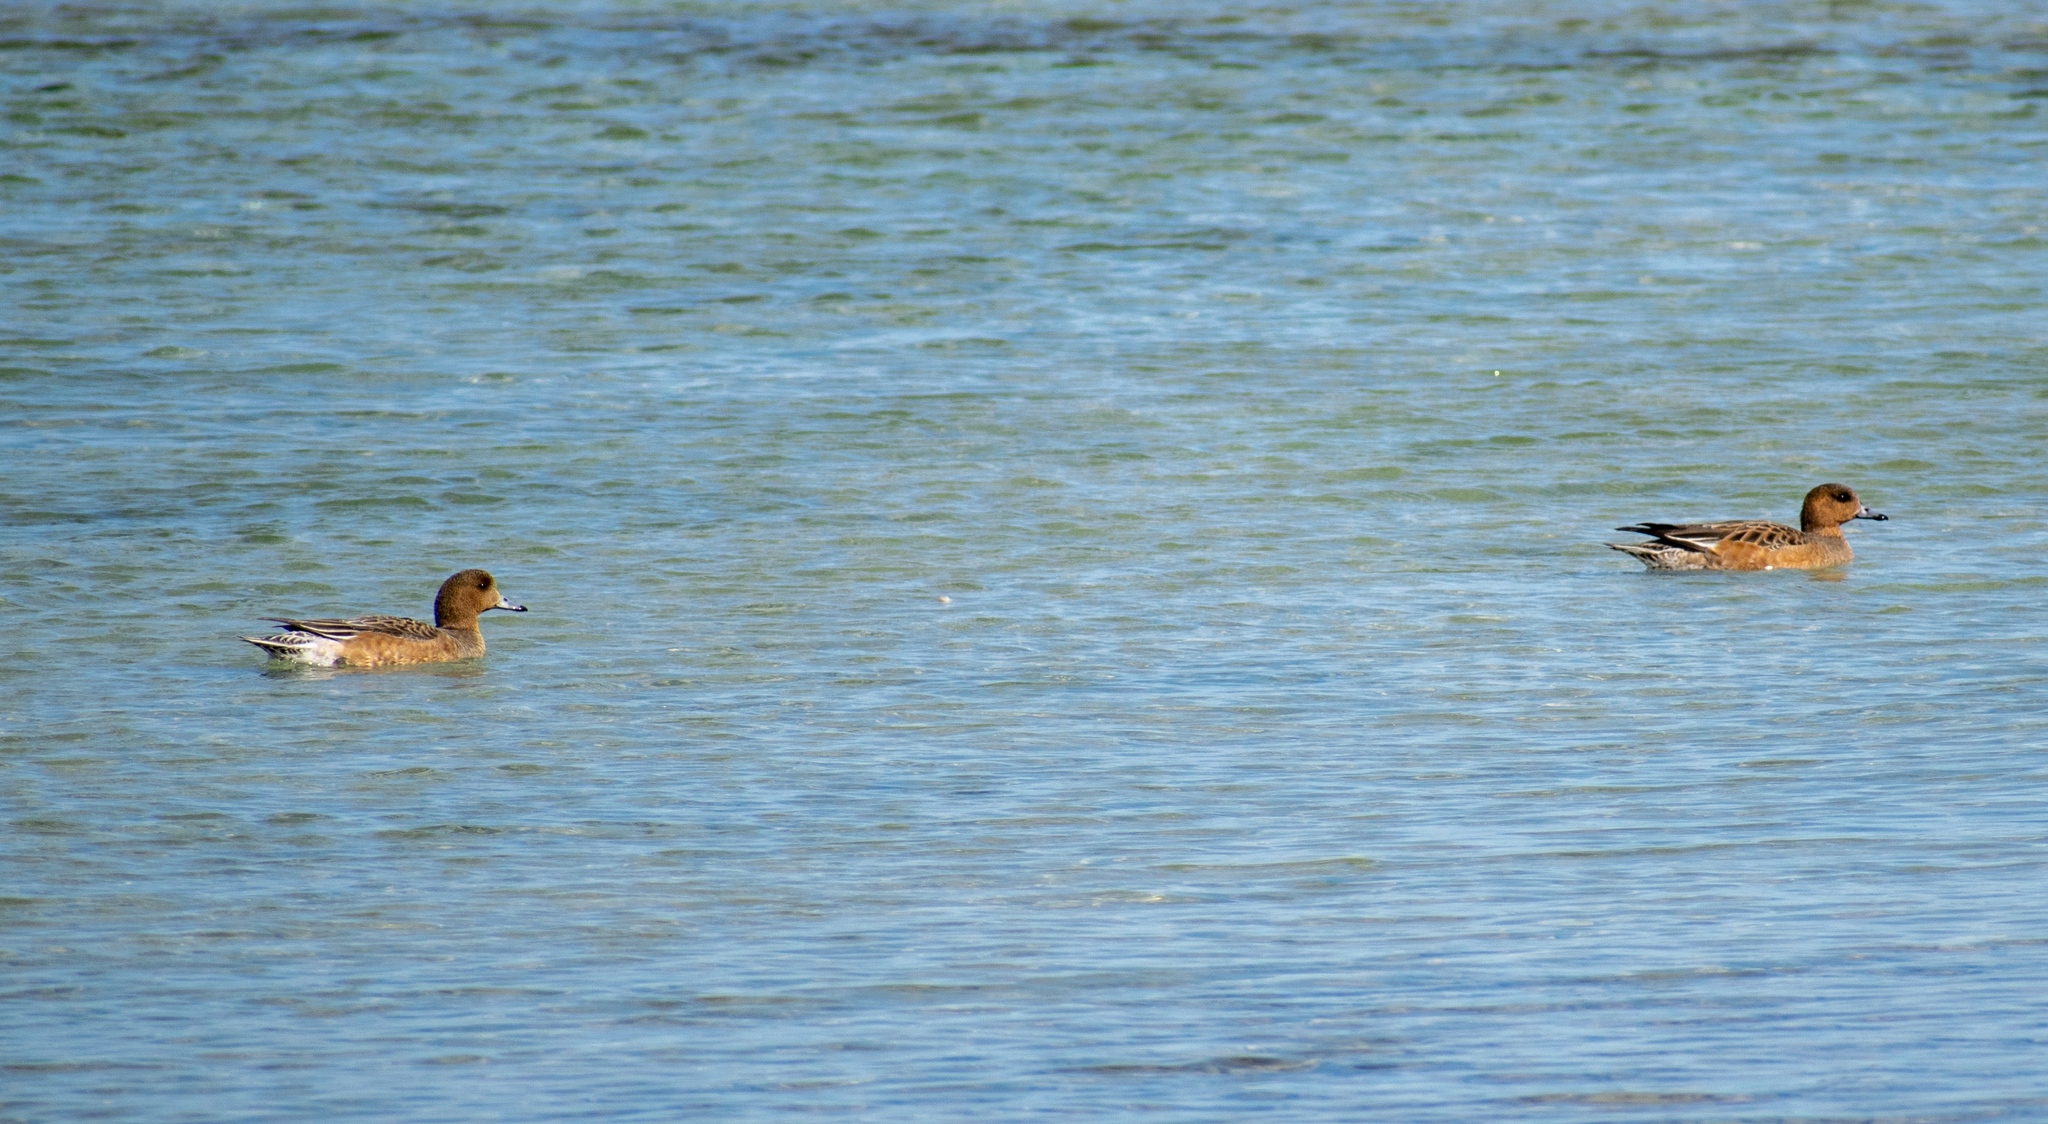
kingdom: Animalia
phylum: Chordata
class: Aves
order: Anseriformes
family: Anatidae
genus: Mareca
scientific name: Mareca penelope
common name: Eurasian wigeon
